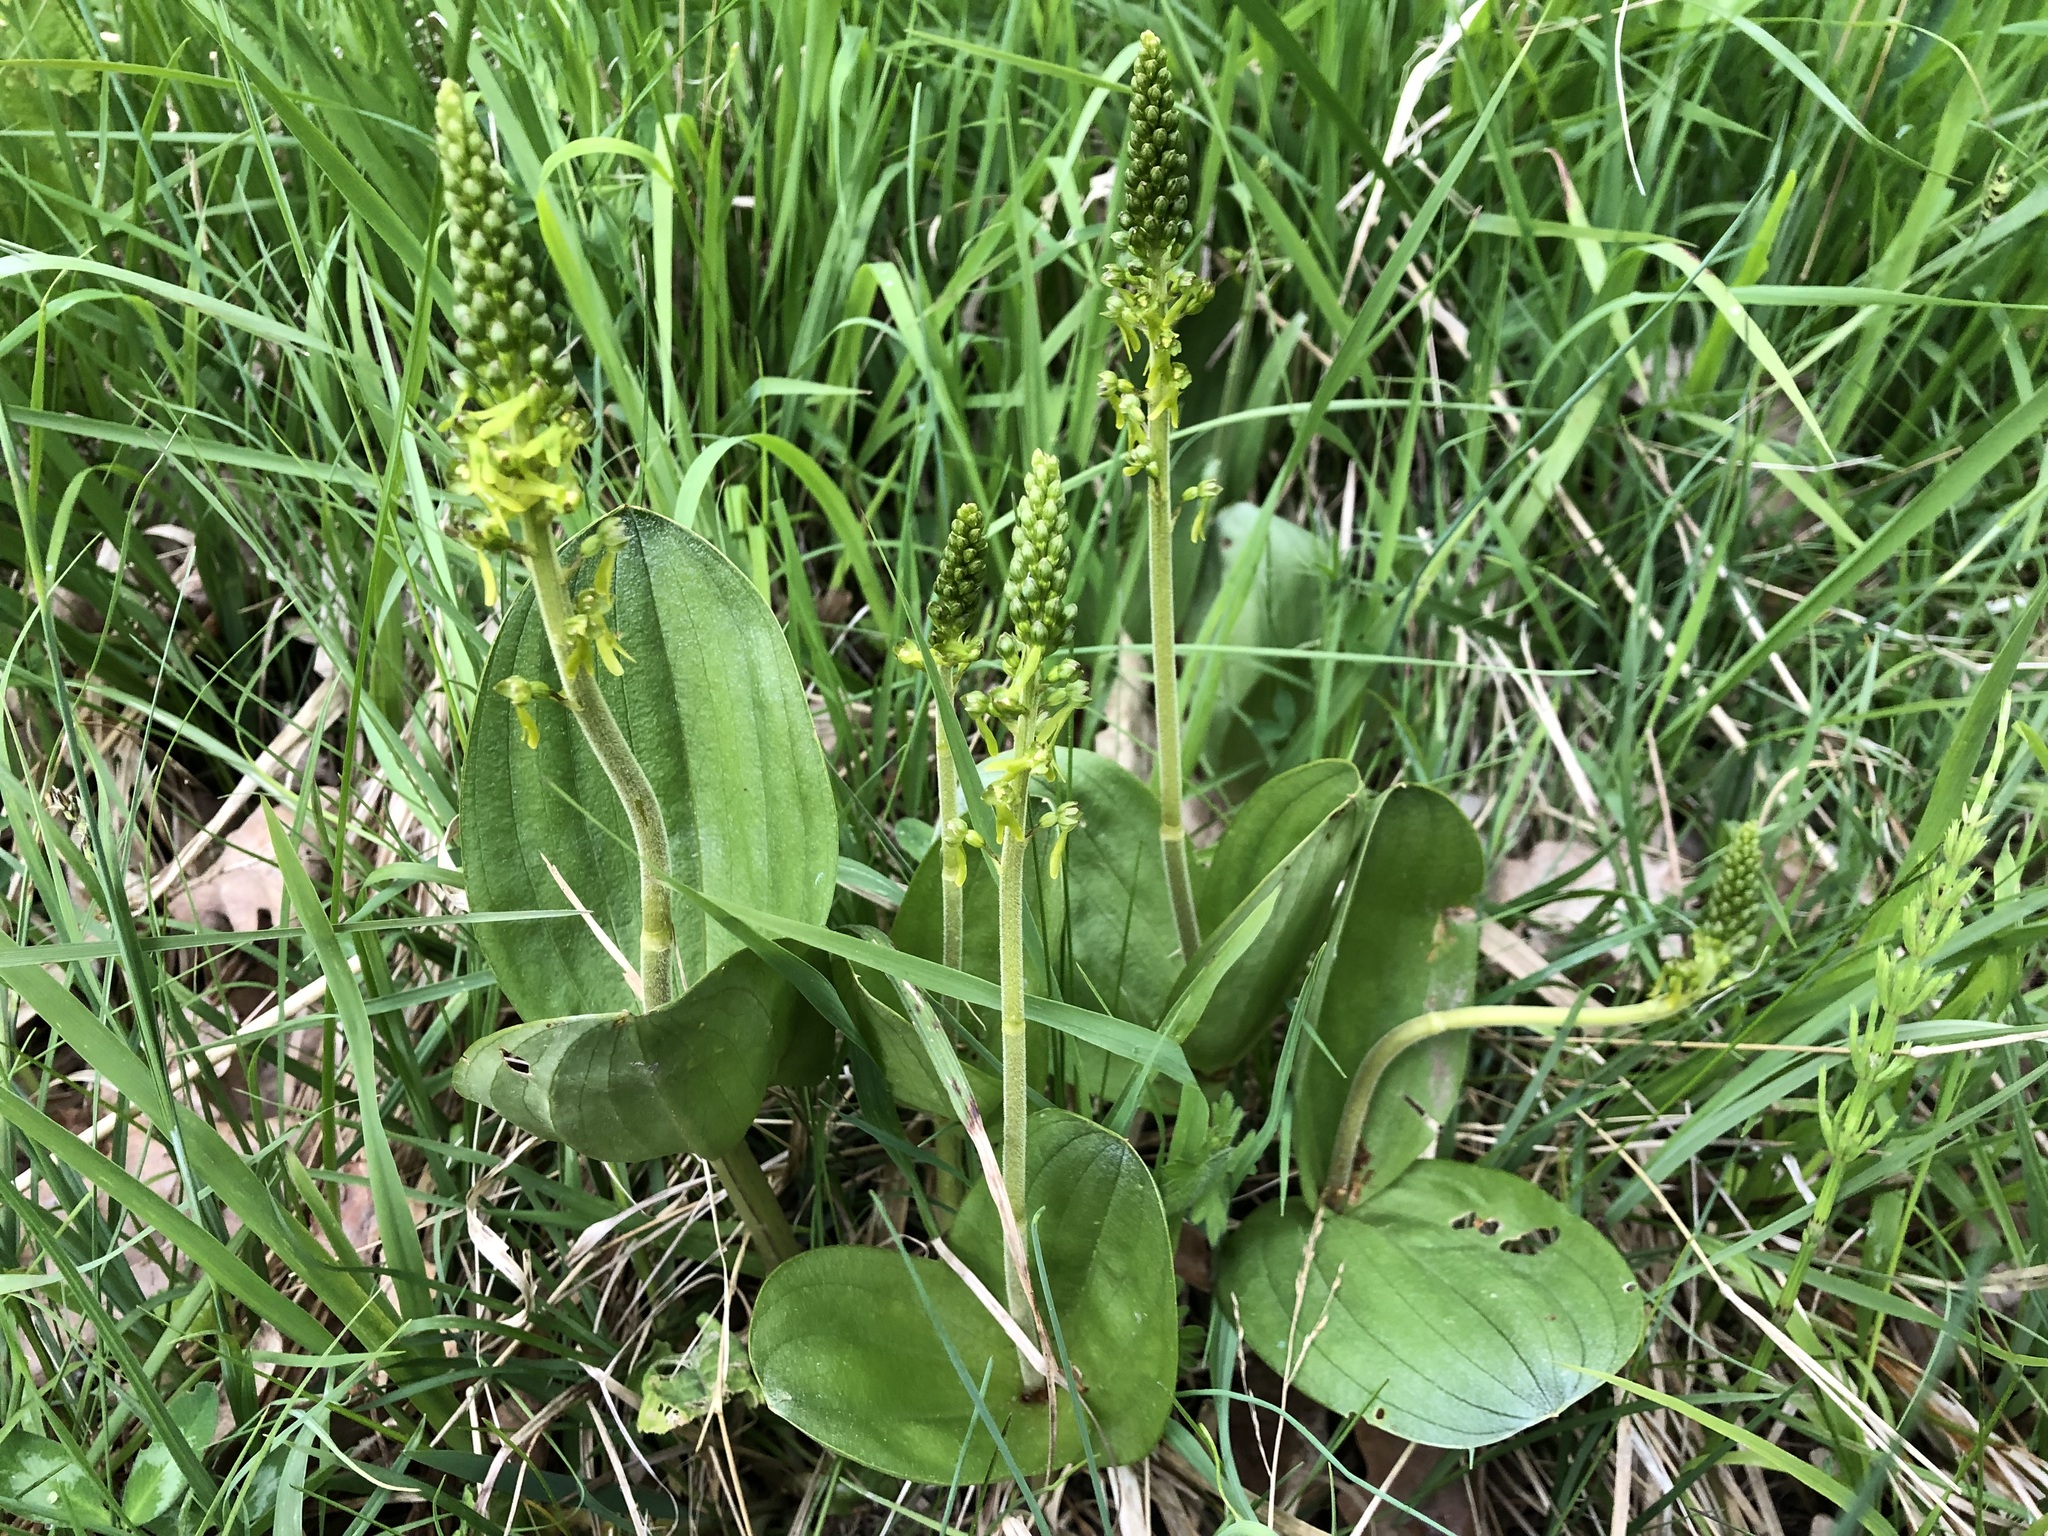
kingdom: Plantae
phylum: Tracheophyta
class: Liliopsida
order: Asparagales
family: Orchidaceae
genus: Neottia
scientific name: Neottia ovata
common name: Common twayblade
